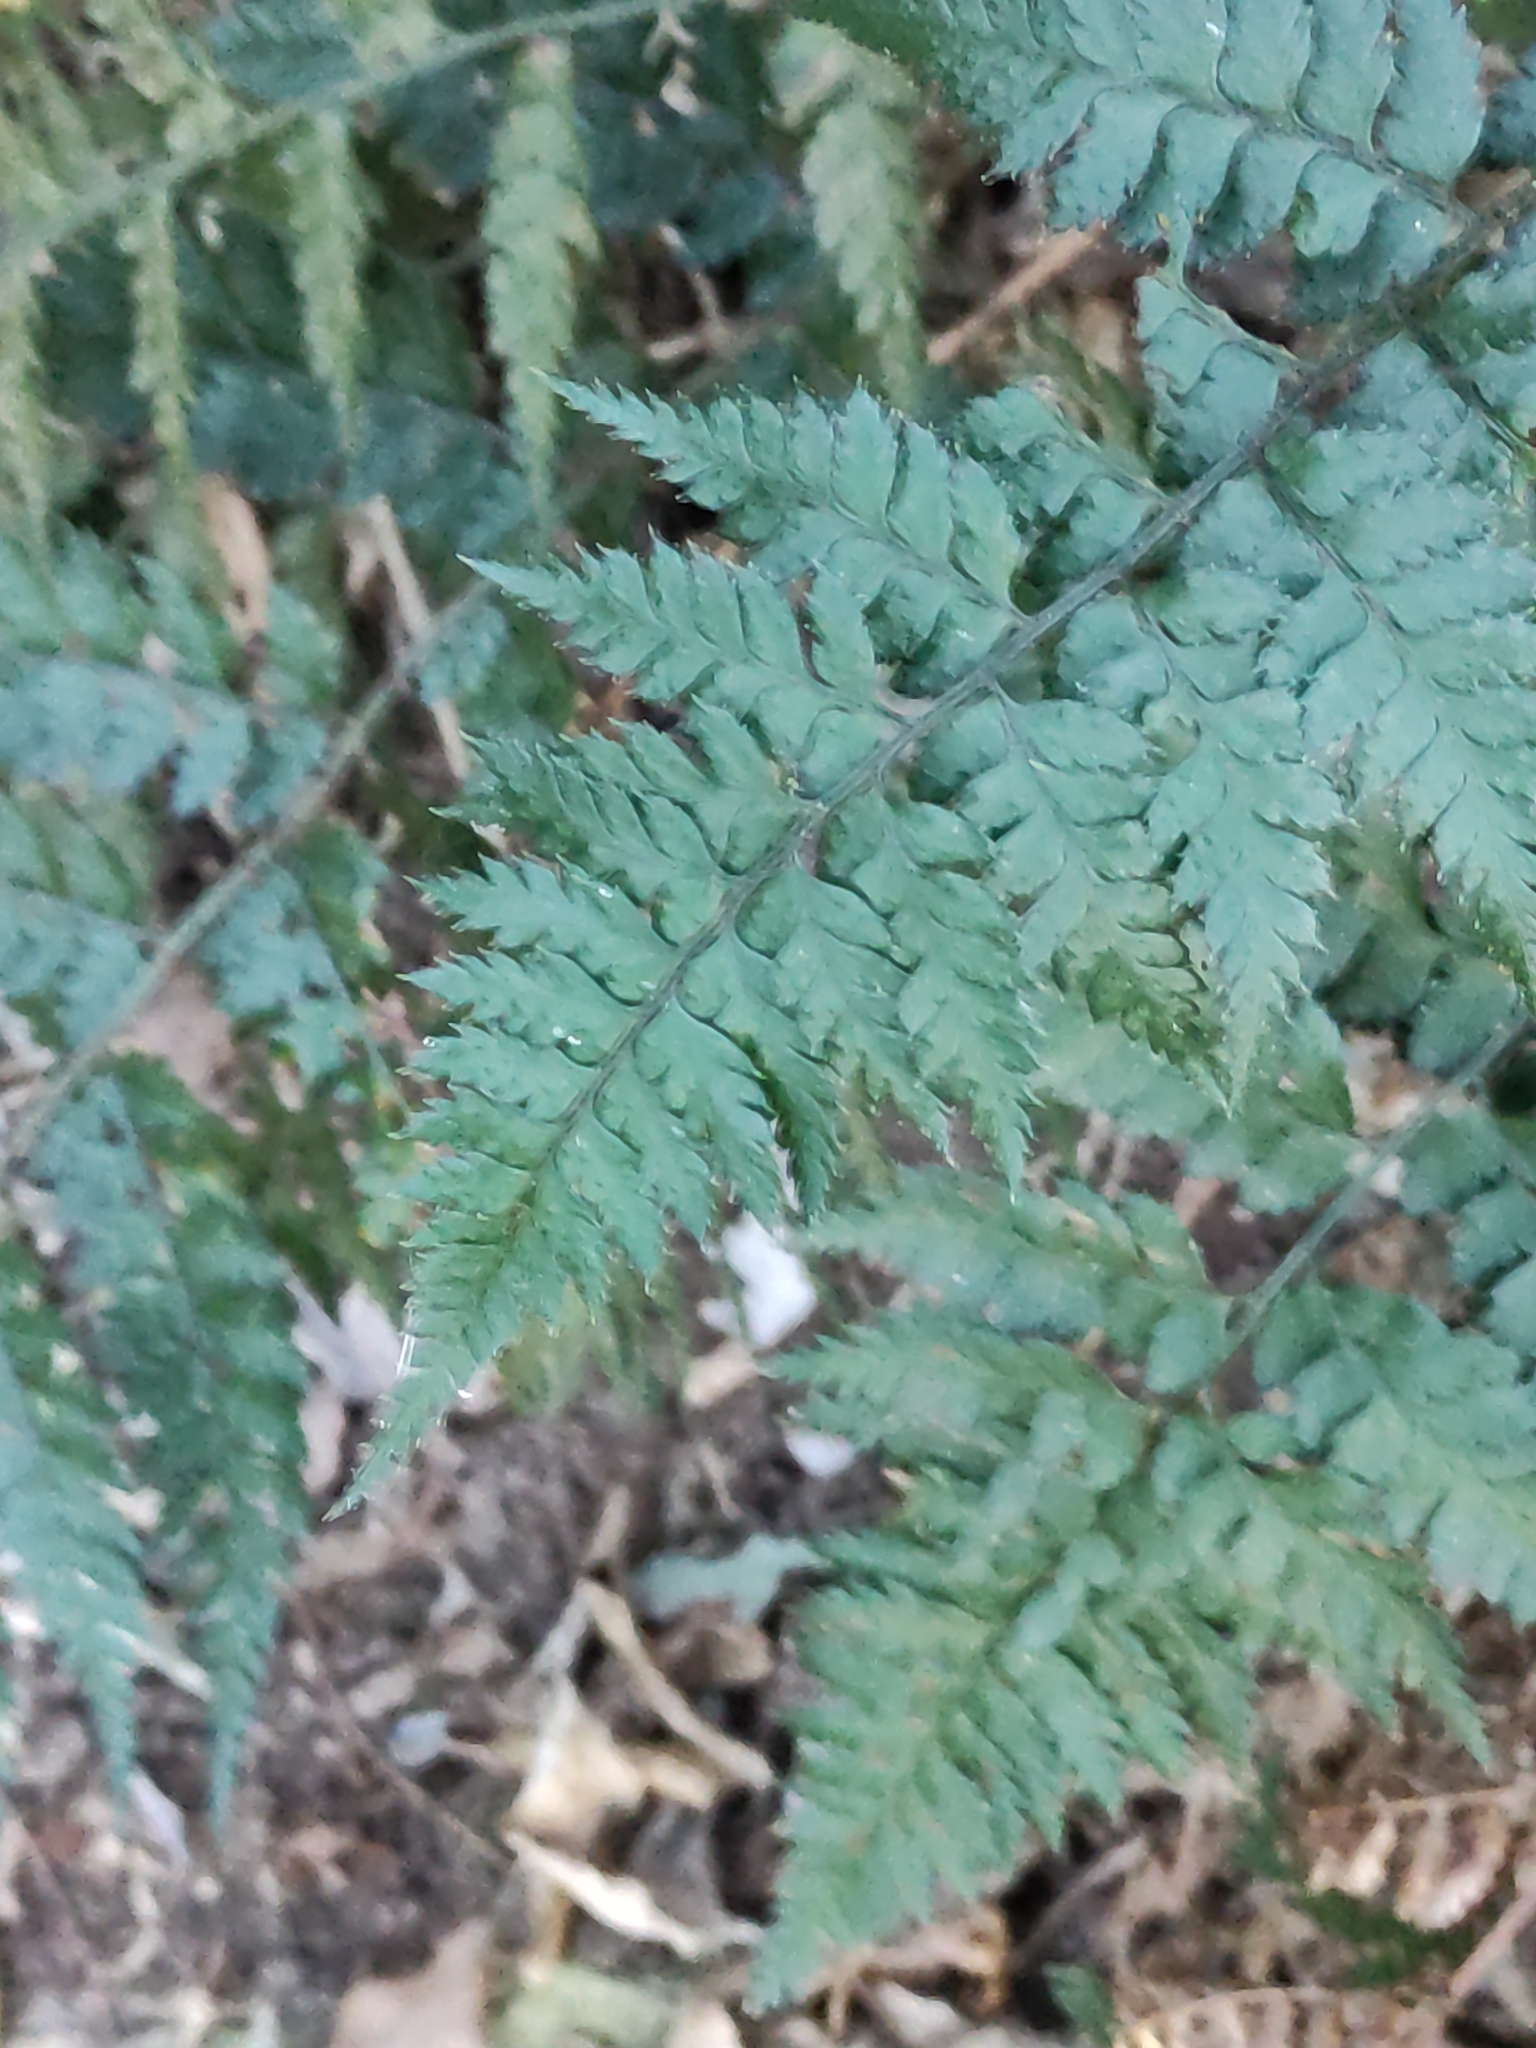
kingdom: Plantae
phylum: Tracheophyta
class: Polypodiopsida
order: Polypodiales
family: Dryopteridaceae
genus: Polystichum
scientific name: Polystichum oculatum
